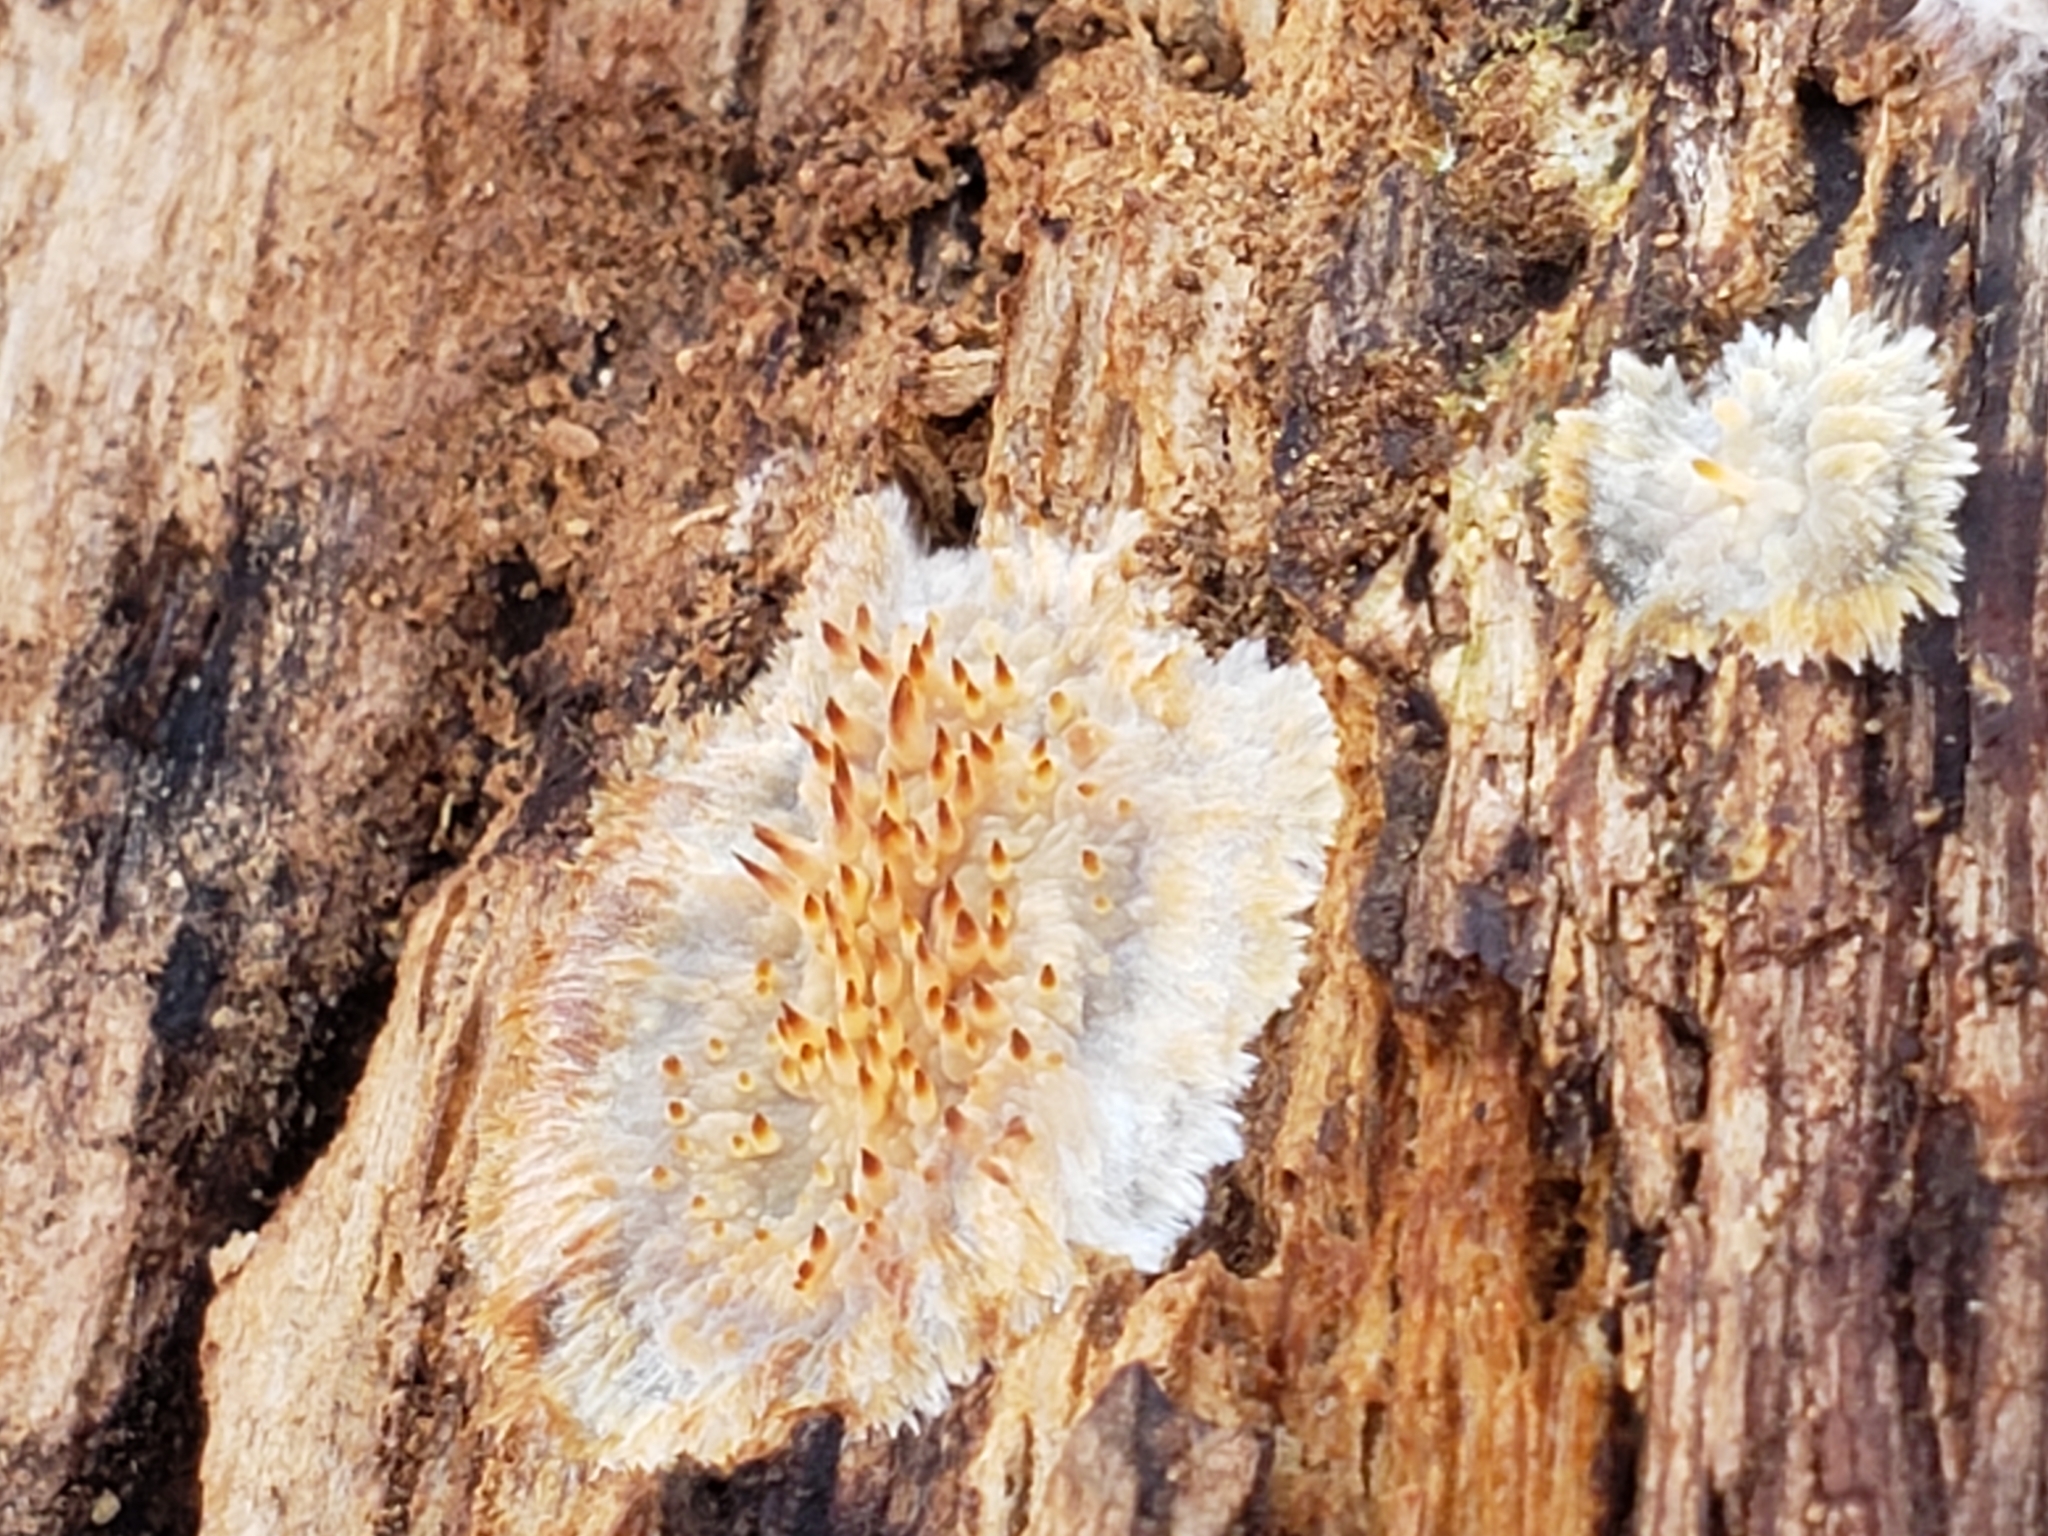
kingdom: Fungi
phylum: Basidiomycota
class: Agaricomycetes
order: Agaricales
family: Radulomycetaceae
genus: Radulomyces
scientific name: Radulomyces copelandii
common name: Asian beauty
